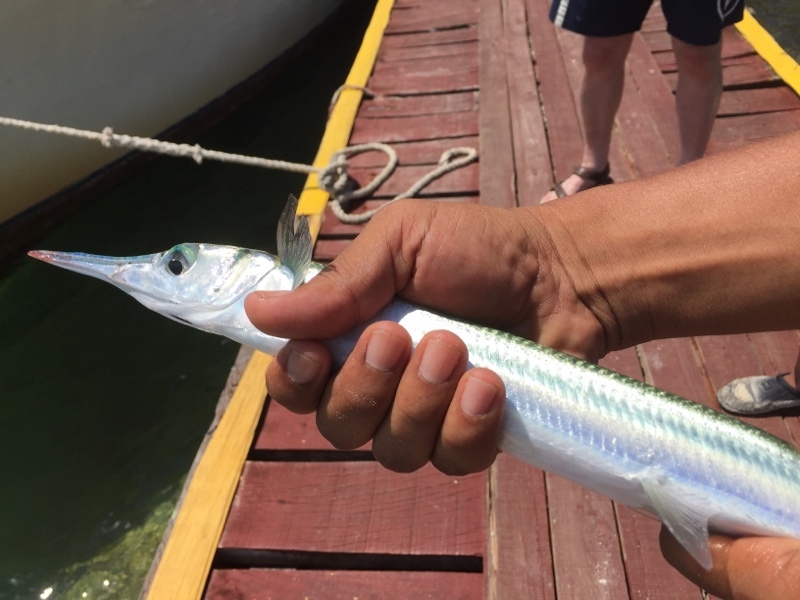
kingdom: Animalia
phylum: Chordata
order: Beloniformes
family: Belonidae
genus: Tylosurus
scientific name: Tylosurus crocodilus
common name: Houndfish
